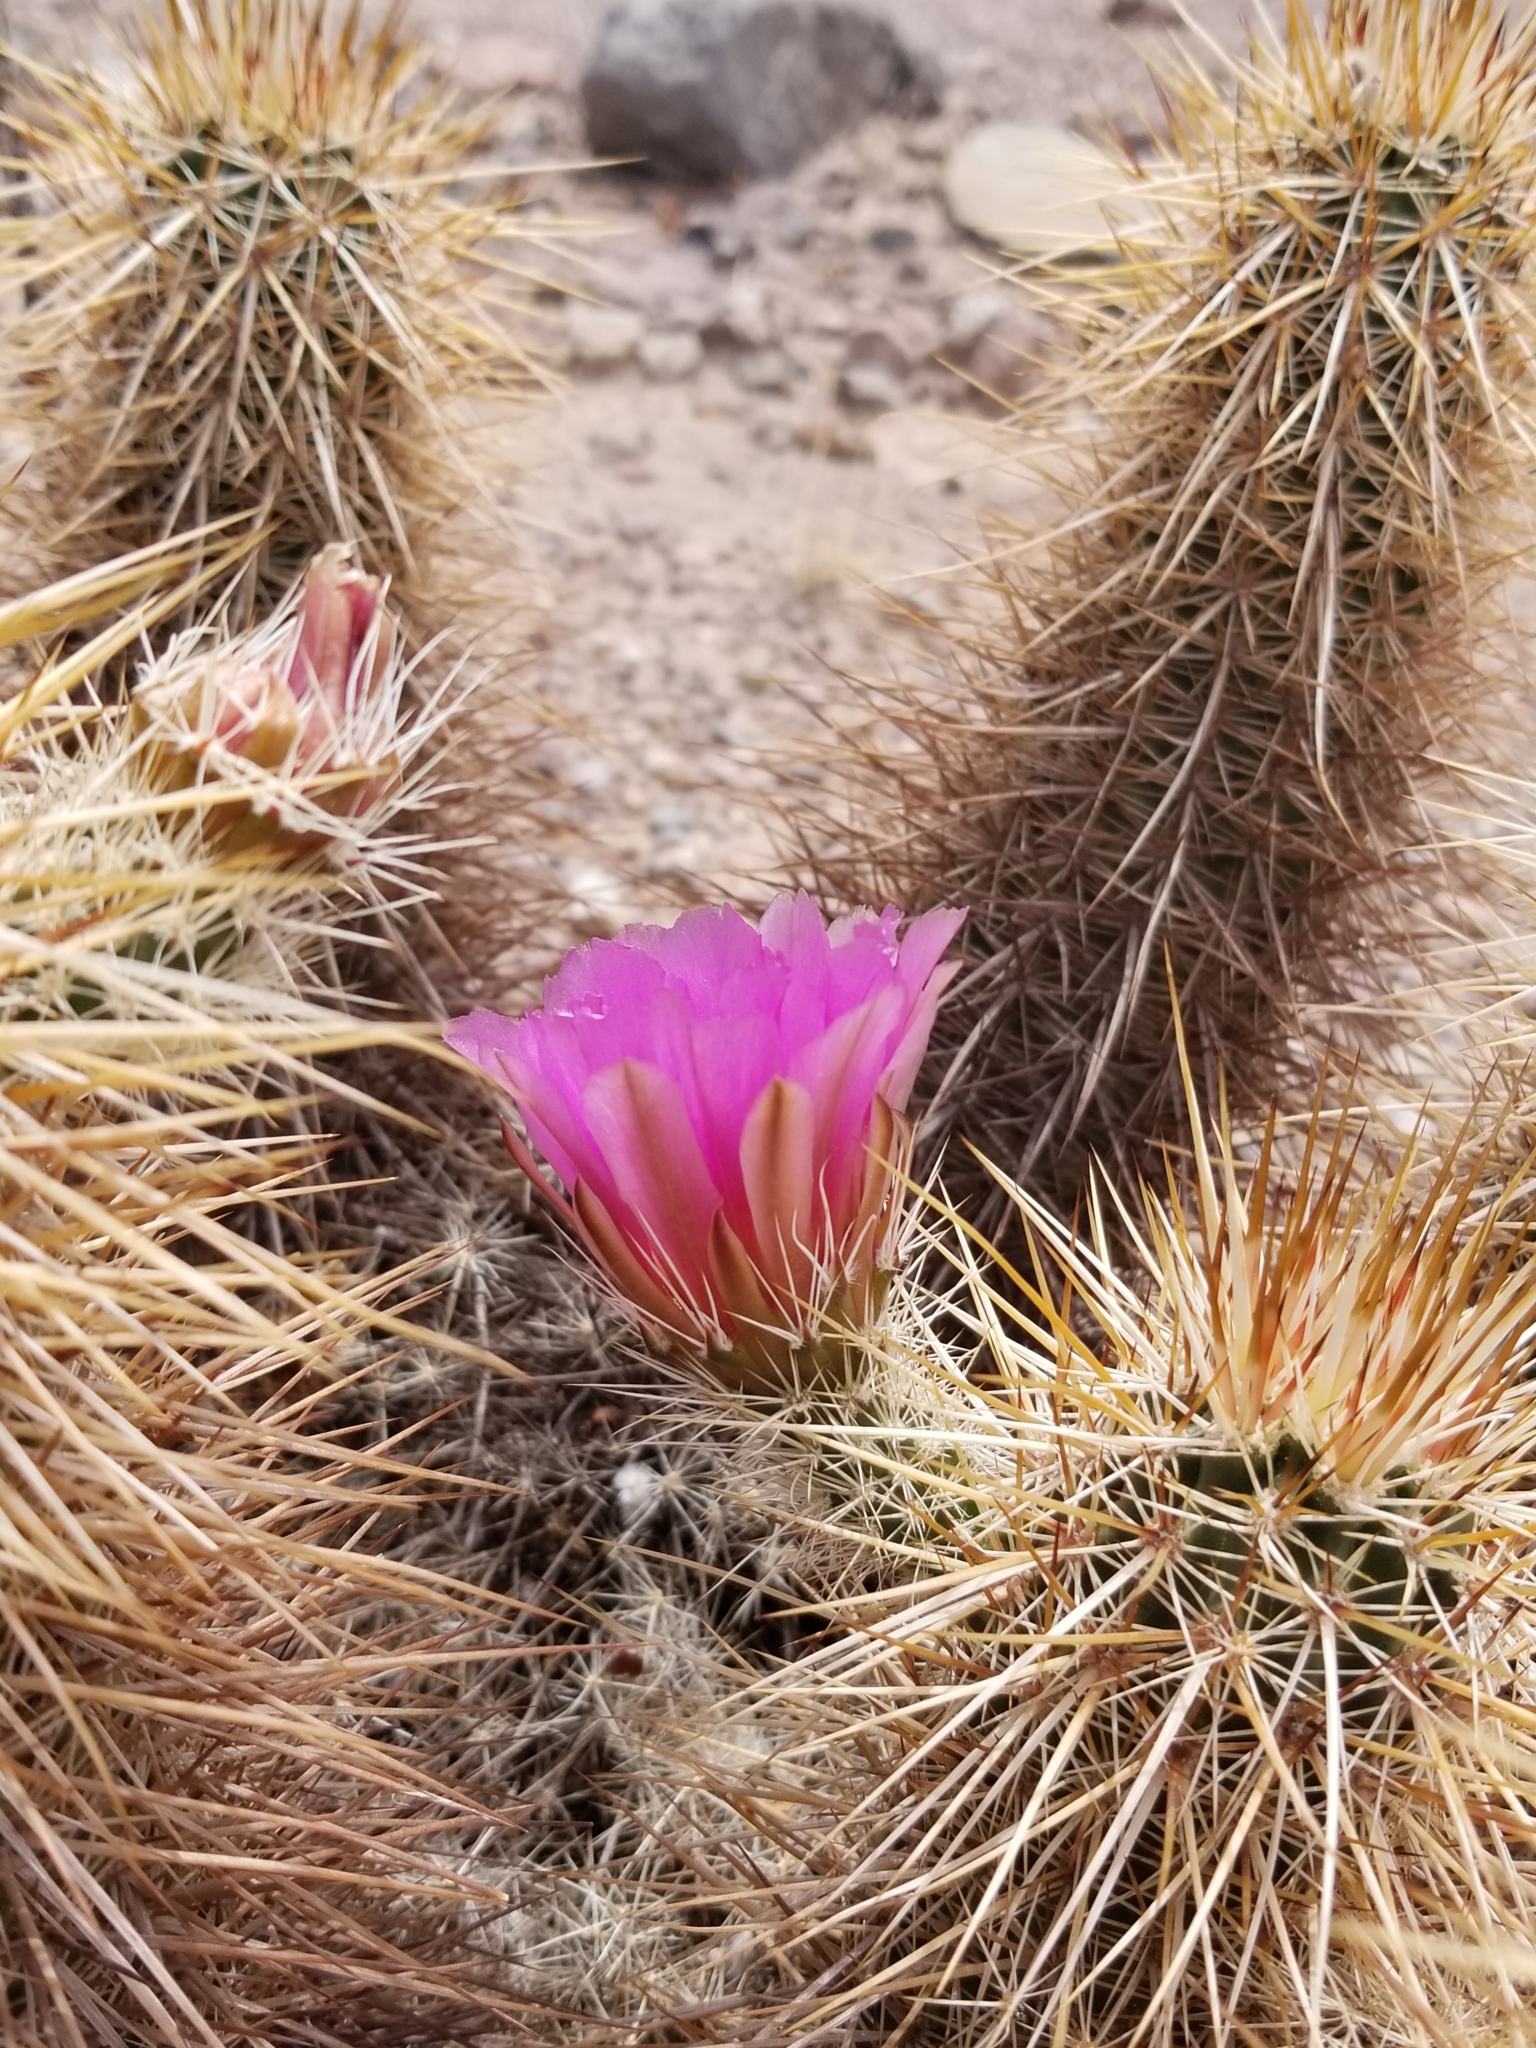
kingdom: Plantae
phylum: Tracheophyta
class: Magnoliopsida
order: Caryophyllales
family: Cactaceae
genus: Echinocereus
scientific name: Echinocereus engelmannii
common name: Engelmann's hedgehog cactus
